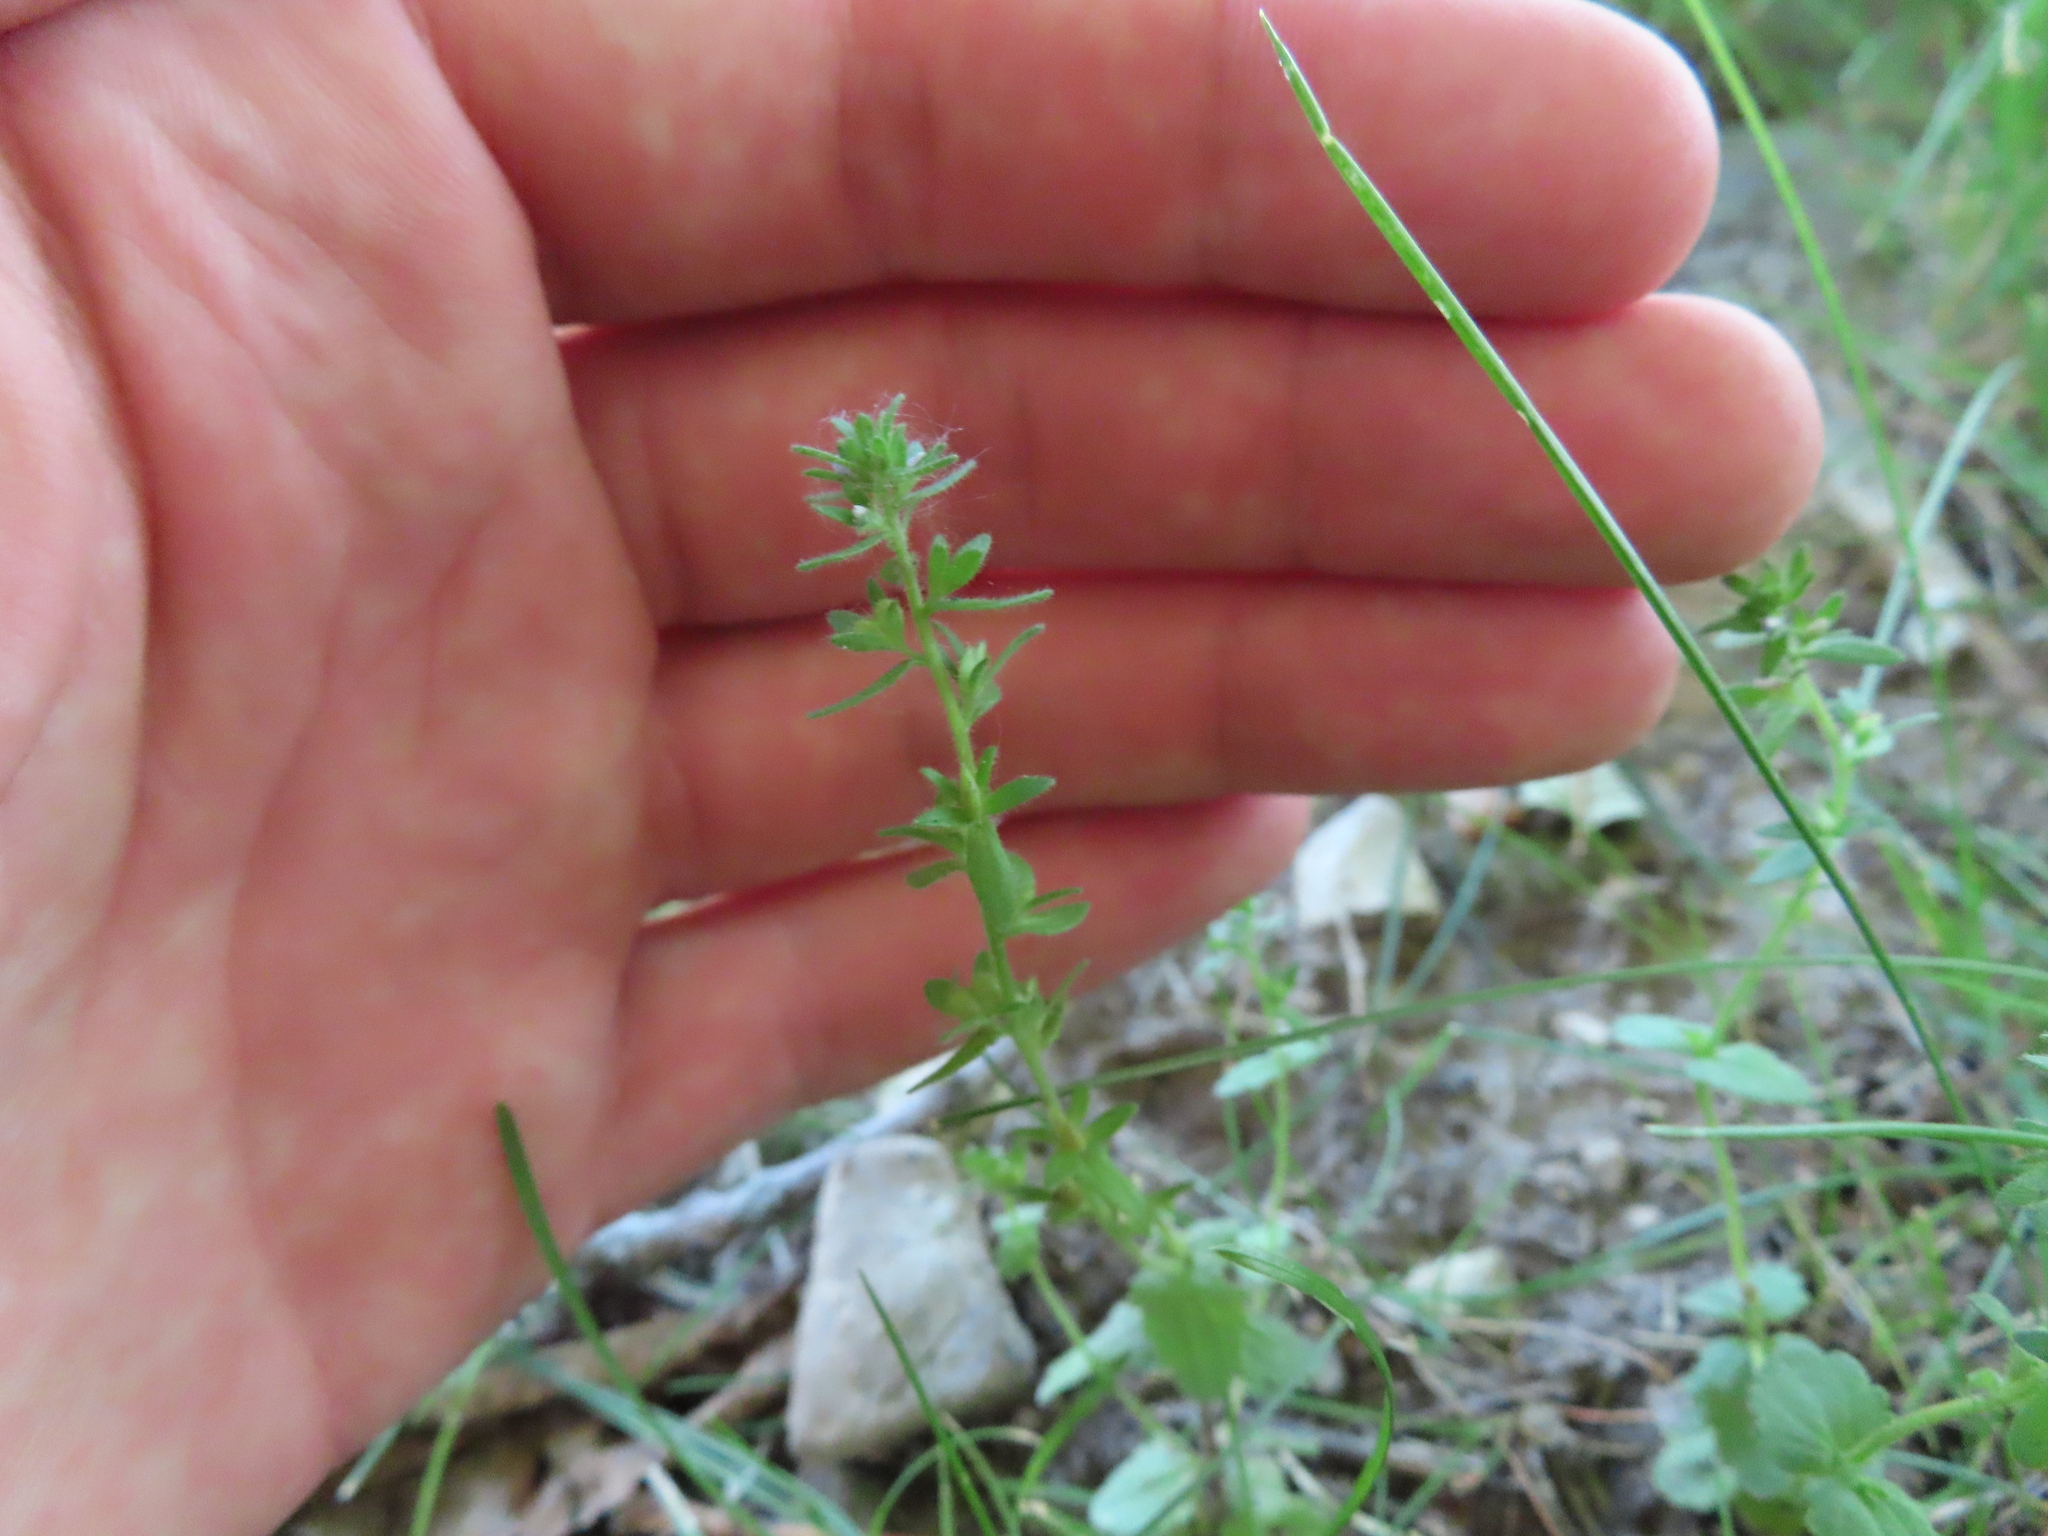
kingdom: Plantae
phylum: Tracheophyta
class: Magnoliopsida
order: Lamiales
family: Plantaginaceae
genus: Veronica
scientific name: Veronica arvensis
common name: Corn speedwell
